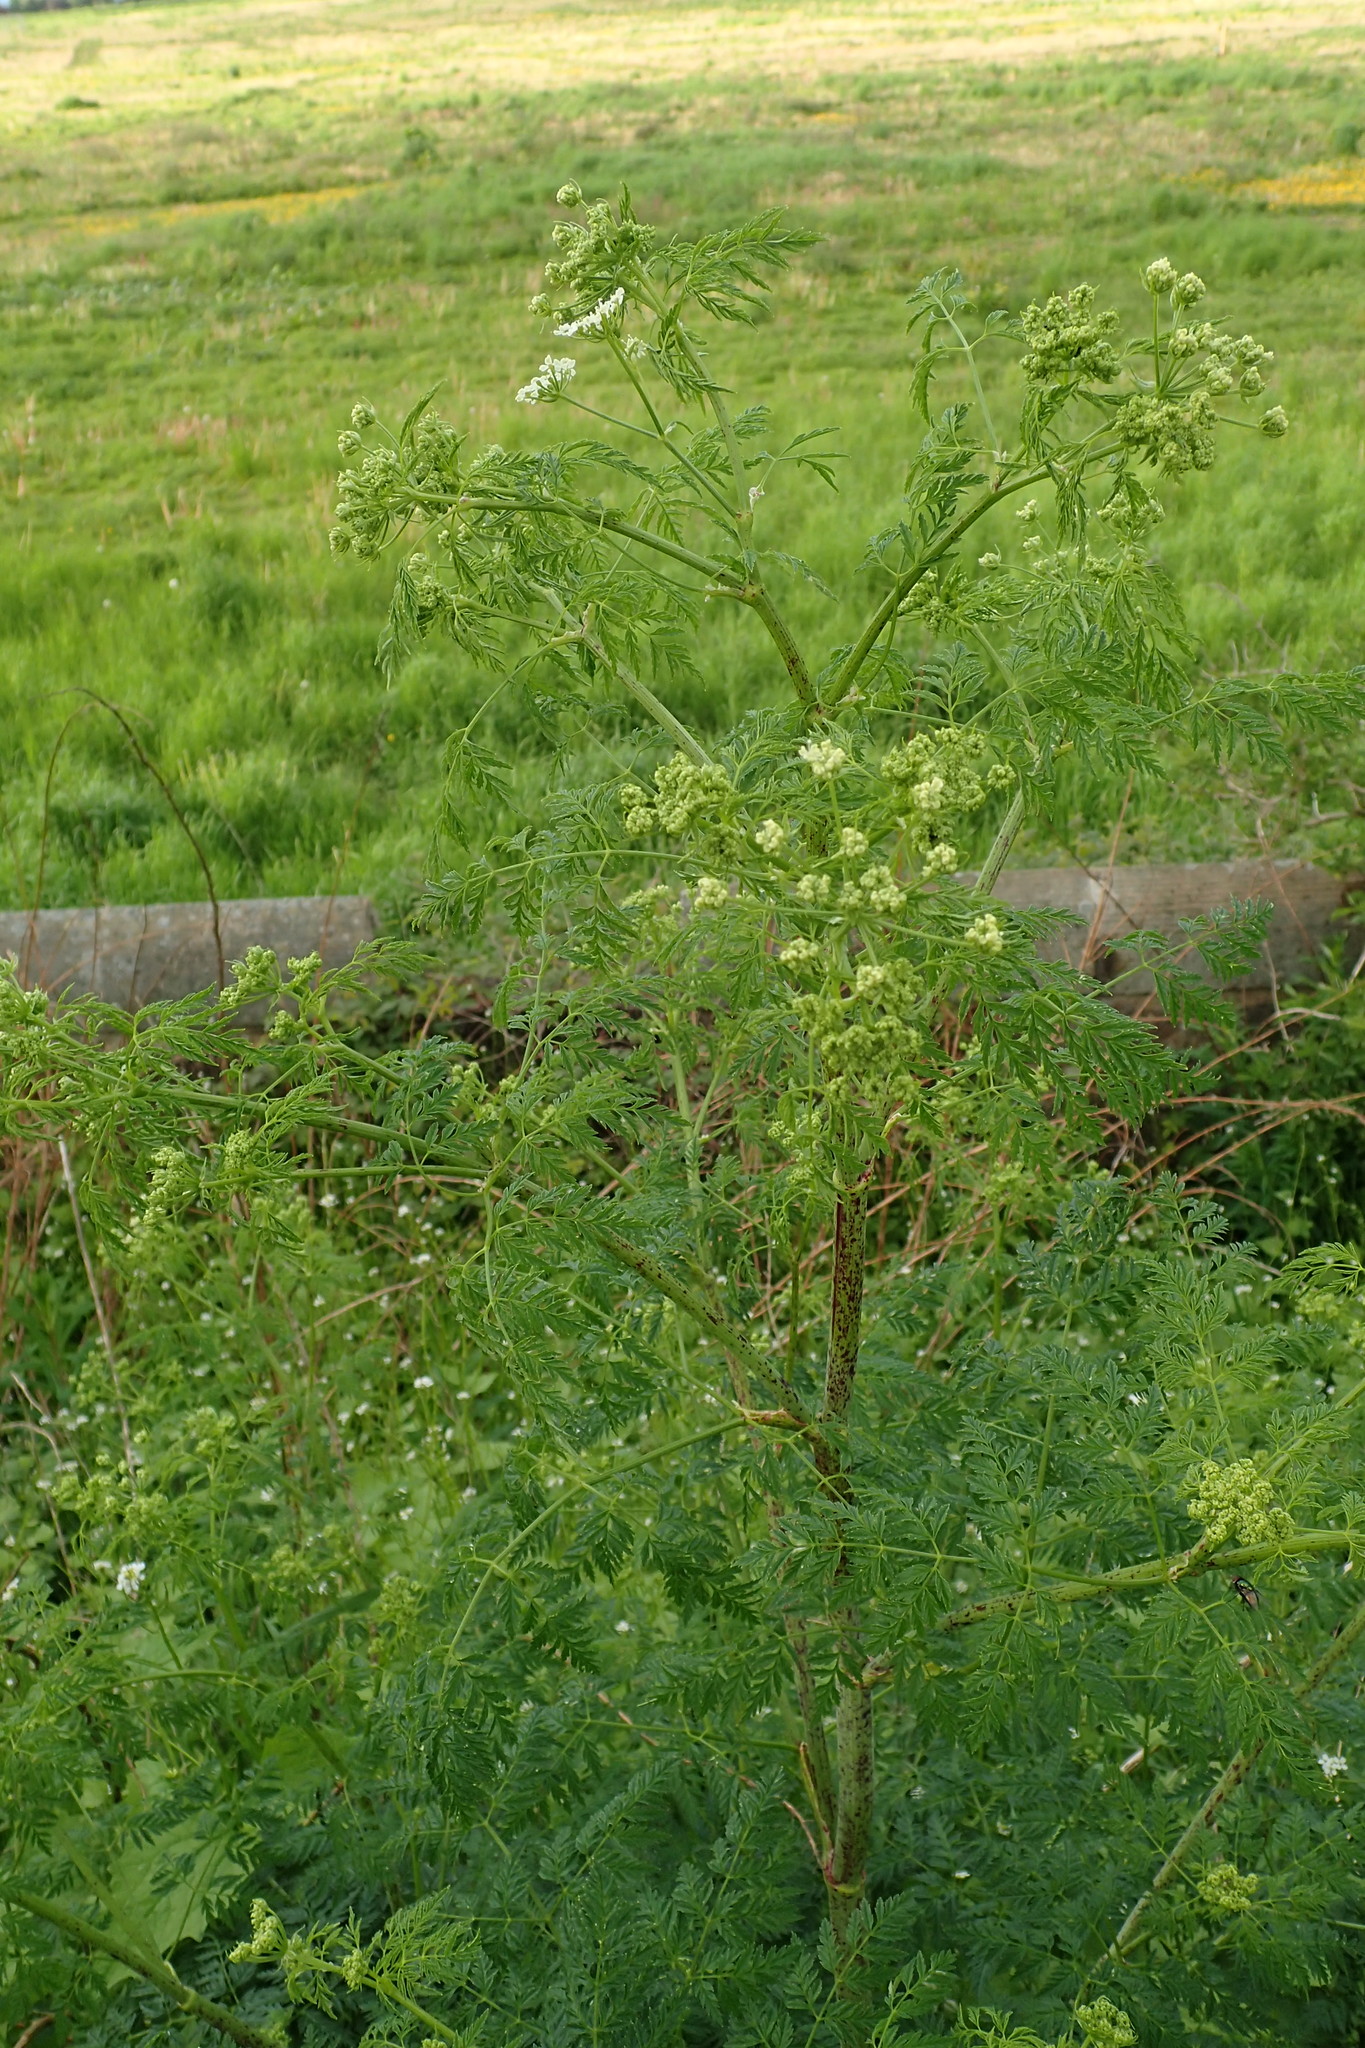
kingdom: Plantae
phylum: Tracheophyta
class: Magnoliopsida
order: Apiales
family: Apiaceae
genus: Conium
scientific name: Conium maculatum
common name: Hemlock
